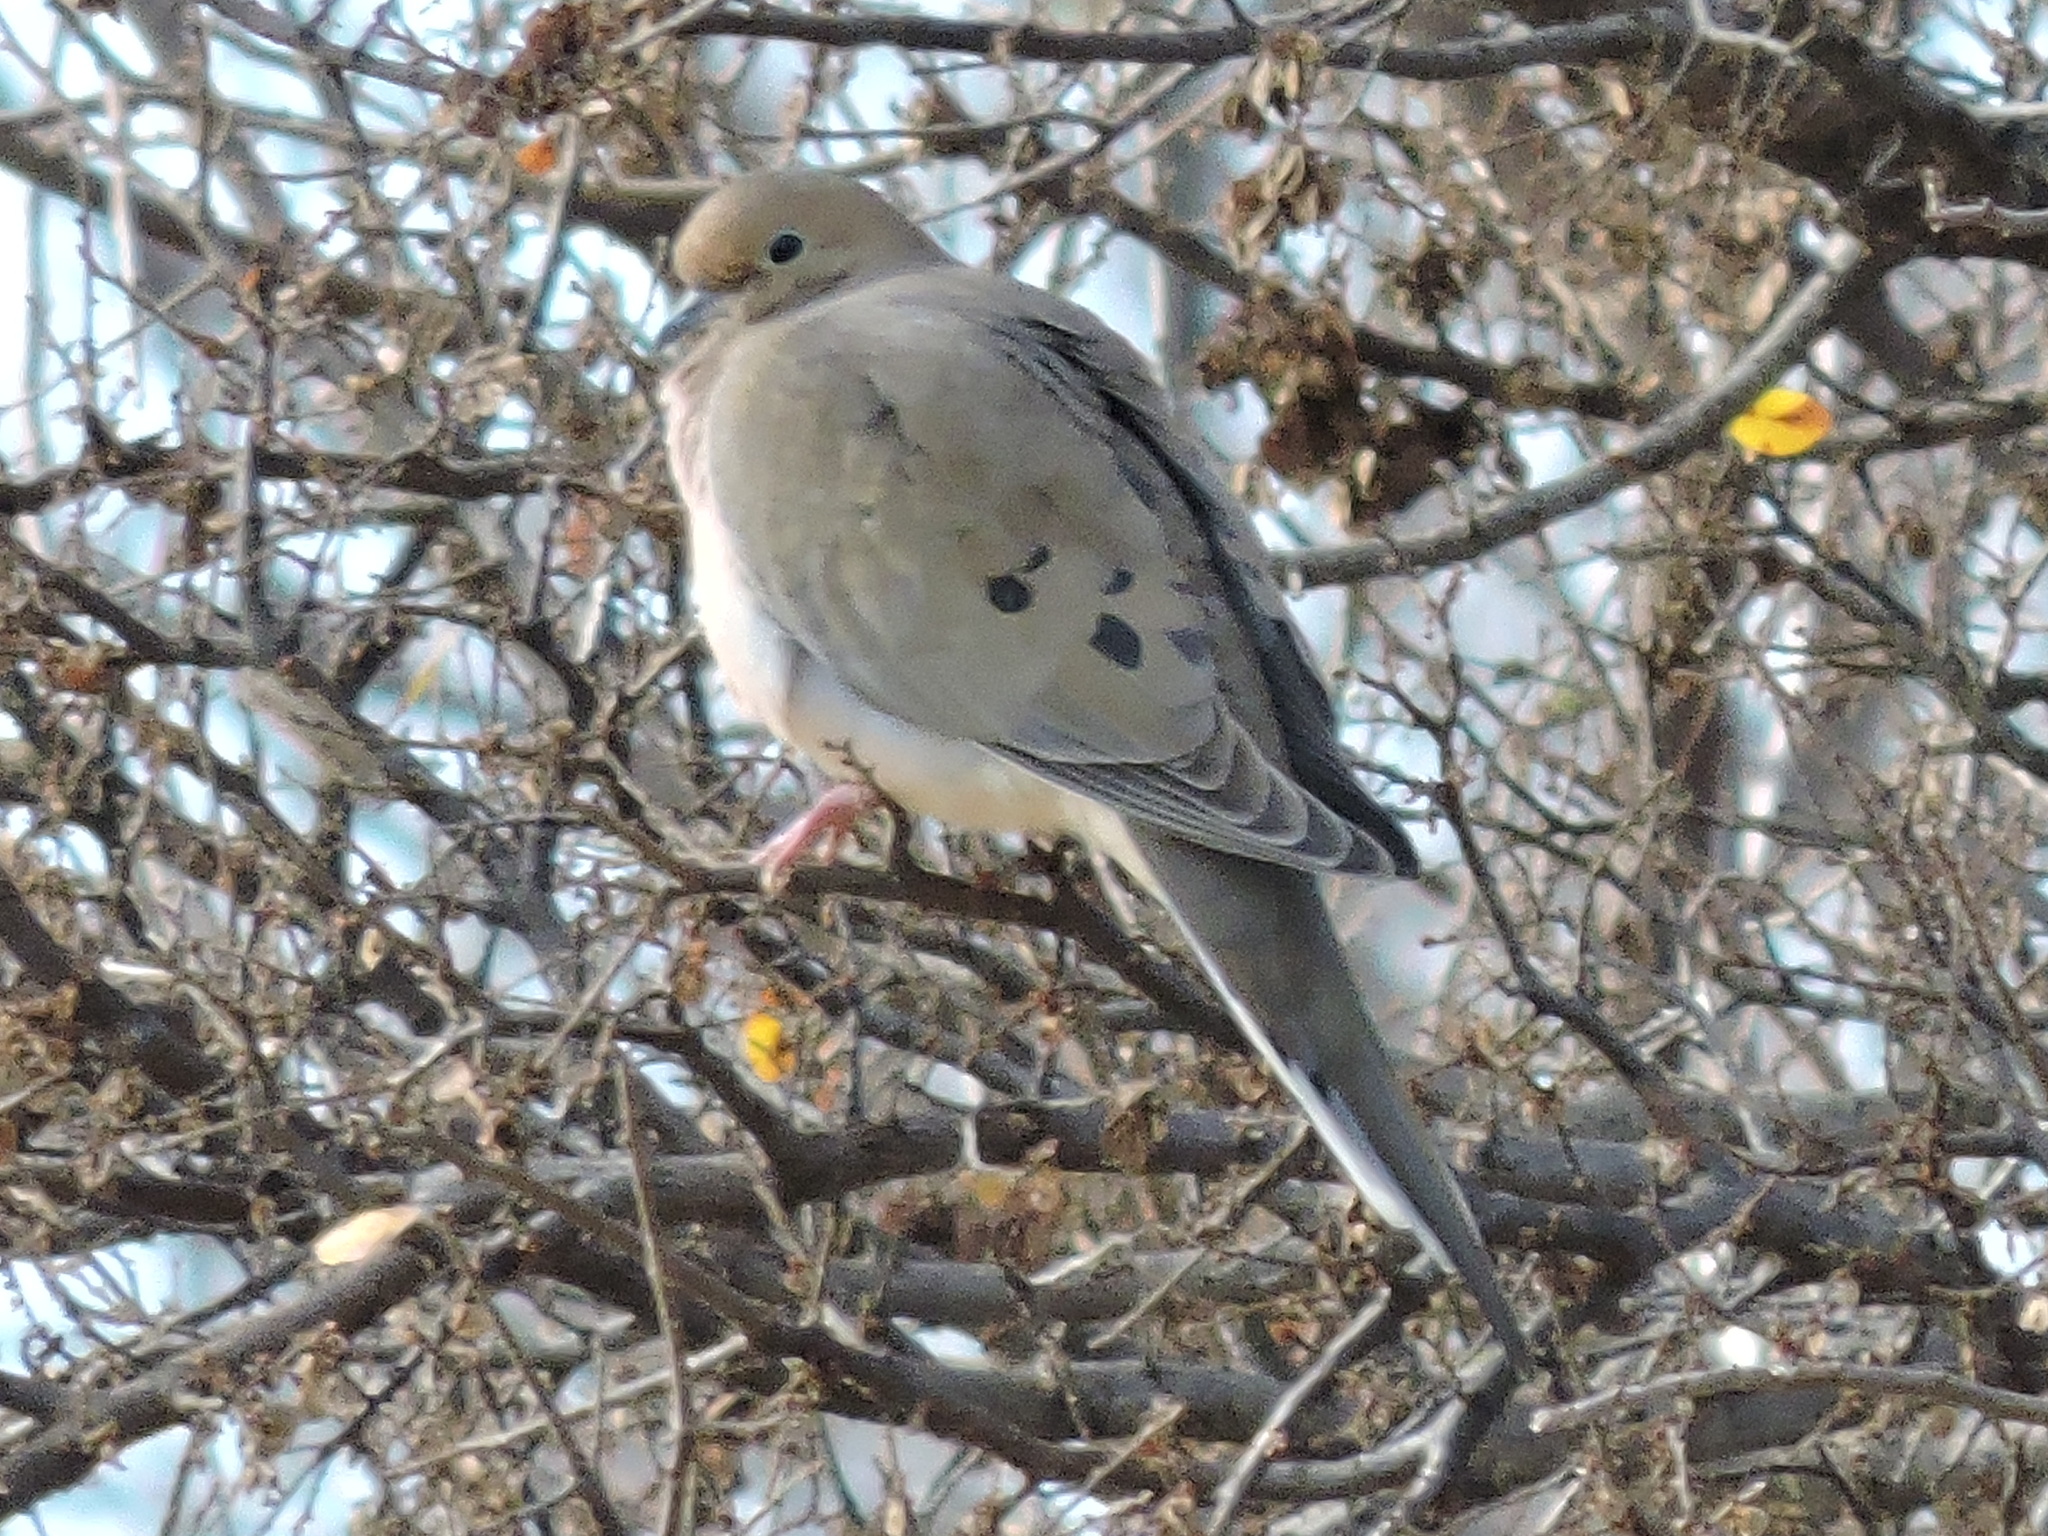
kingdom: Animalia
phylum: Chordata
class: Aves
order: Columbiformes
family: Columbidae
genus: Zenaida
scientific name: Zenaida macroura
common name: Mourning dove
